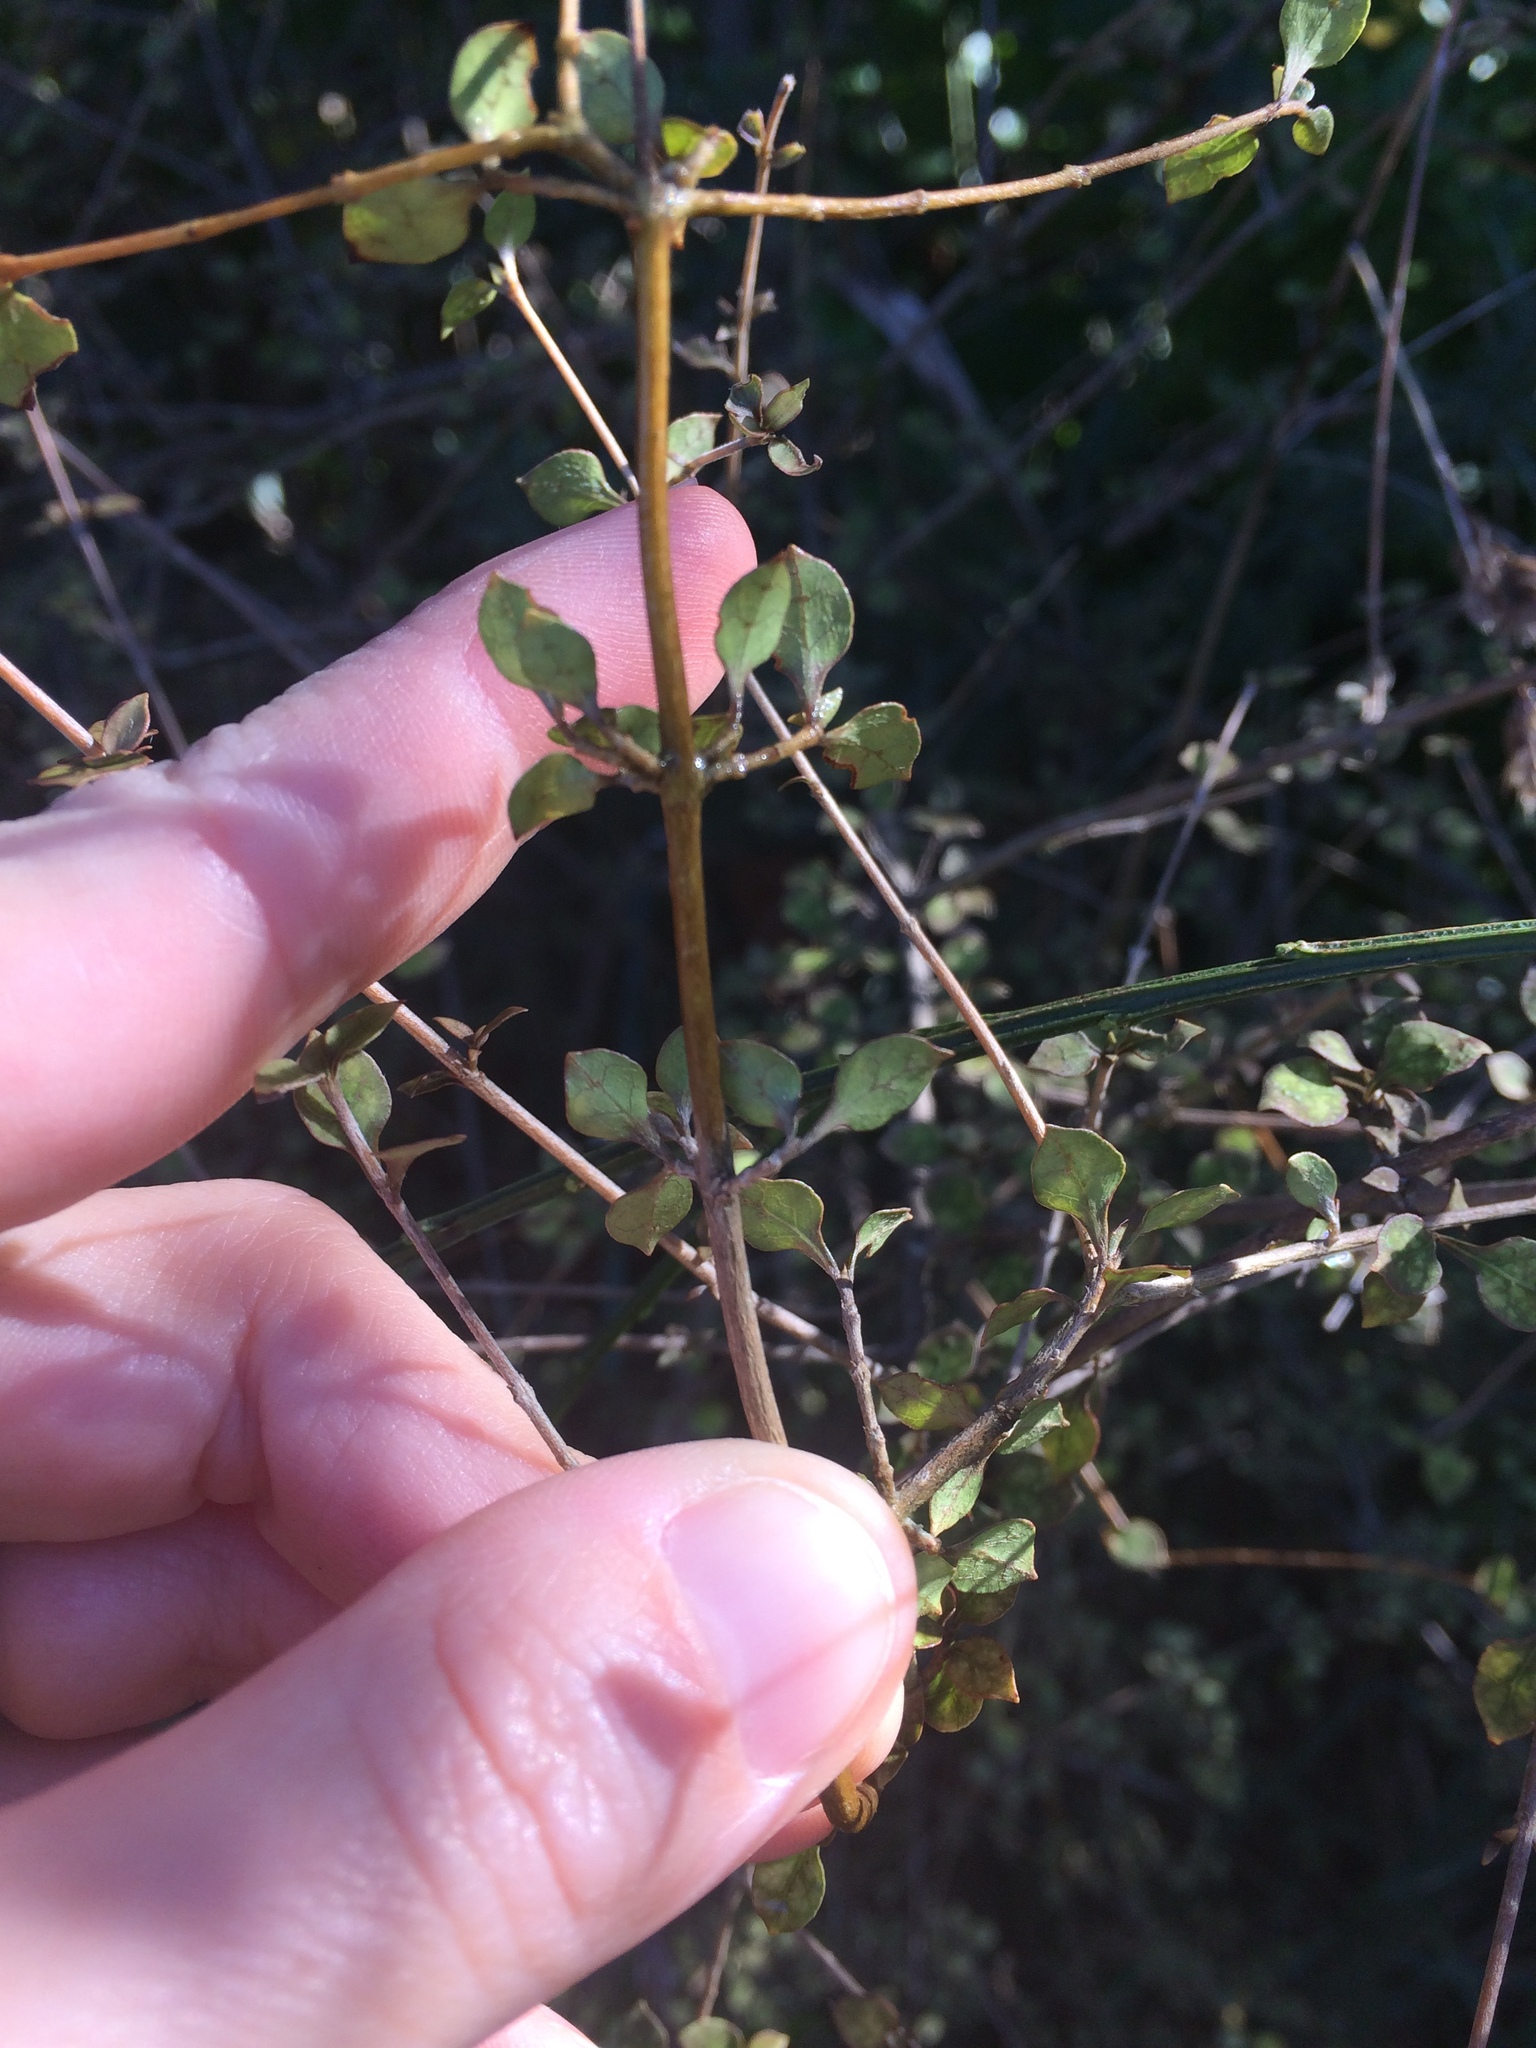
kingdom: Plantae
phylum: Tracheophyta
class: Magnoliopsida
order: Gentianales
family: Rubiaceae
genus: Coprosma
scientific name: Coprosma areolata
